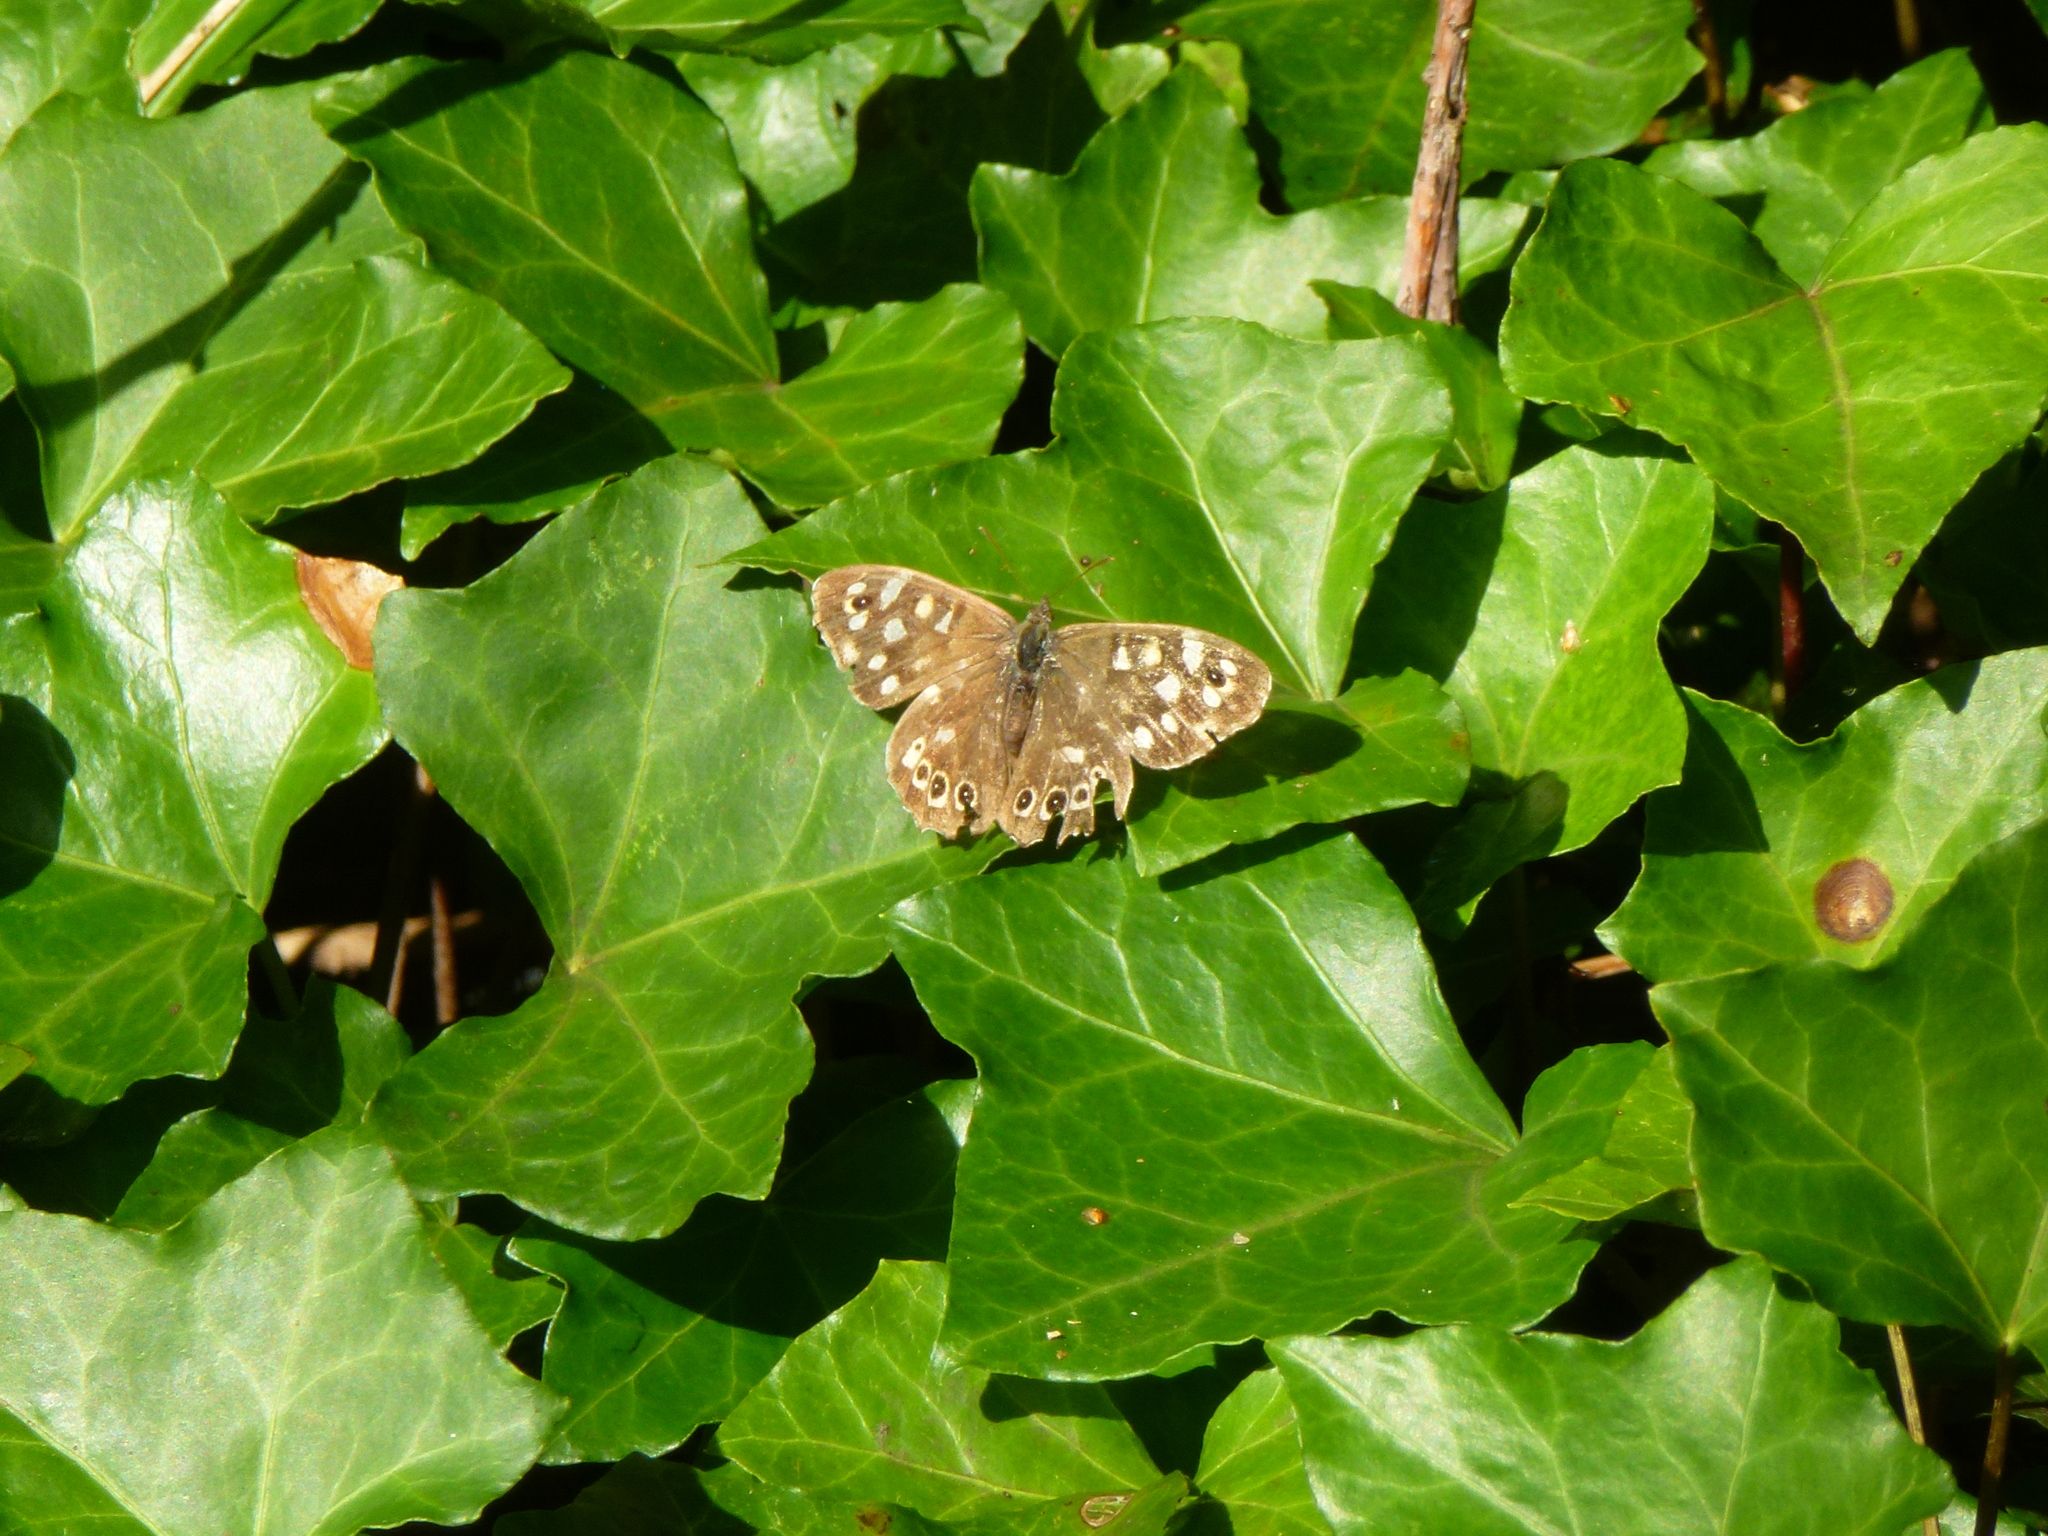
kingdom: Animalia
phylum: Arthropoda
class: Insecta
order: Lepidoptera
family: Nymphalidae
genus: Pararge
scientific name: Pararge aegeria
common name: Speckled wood
